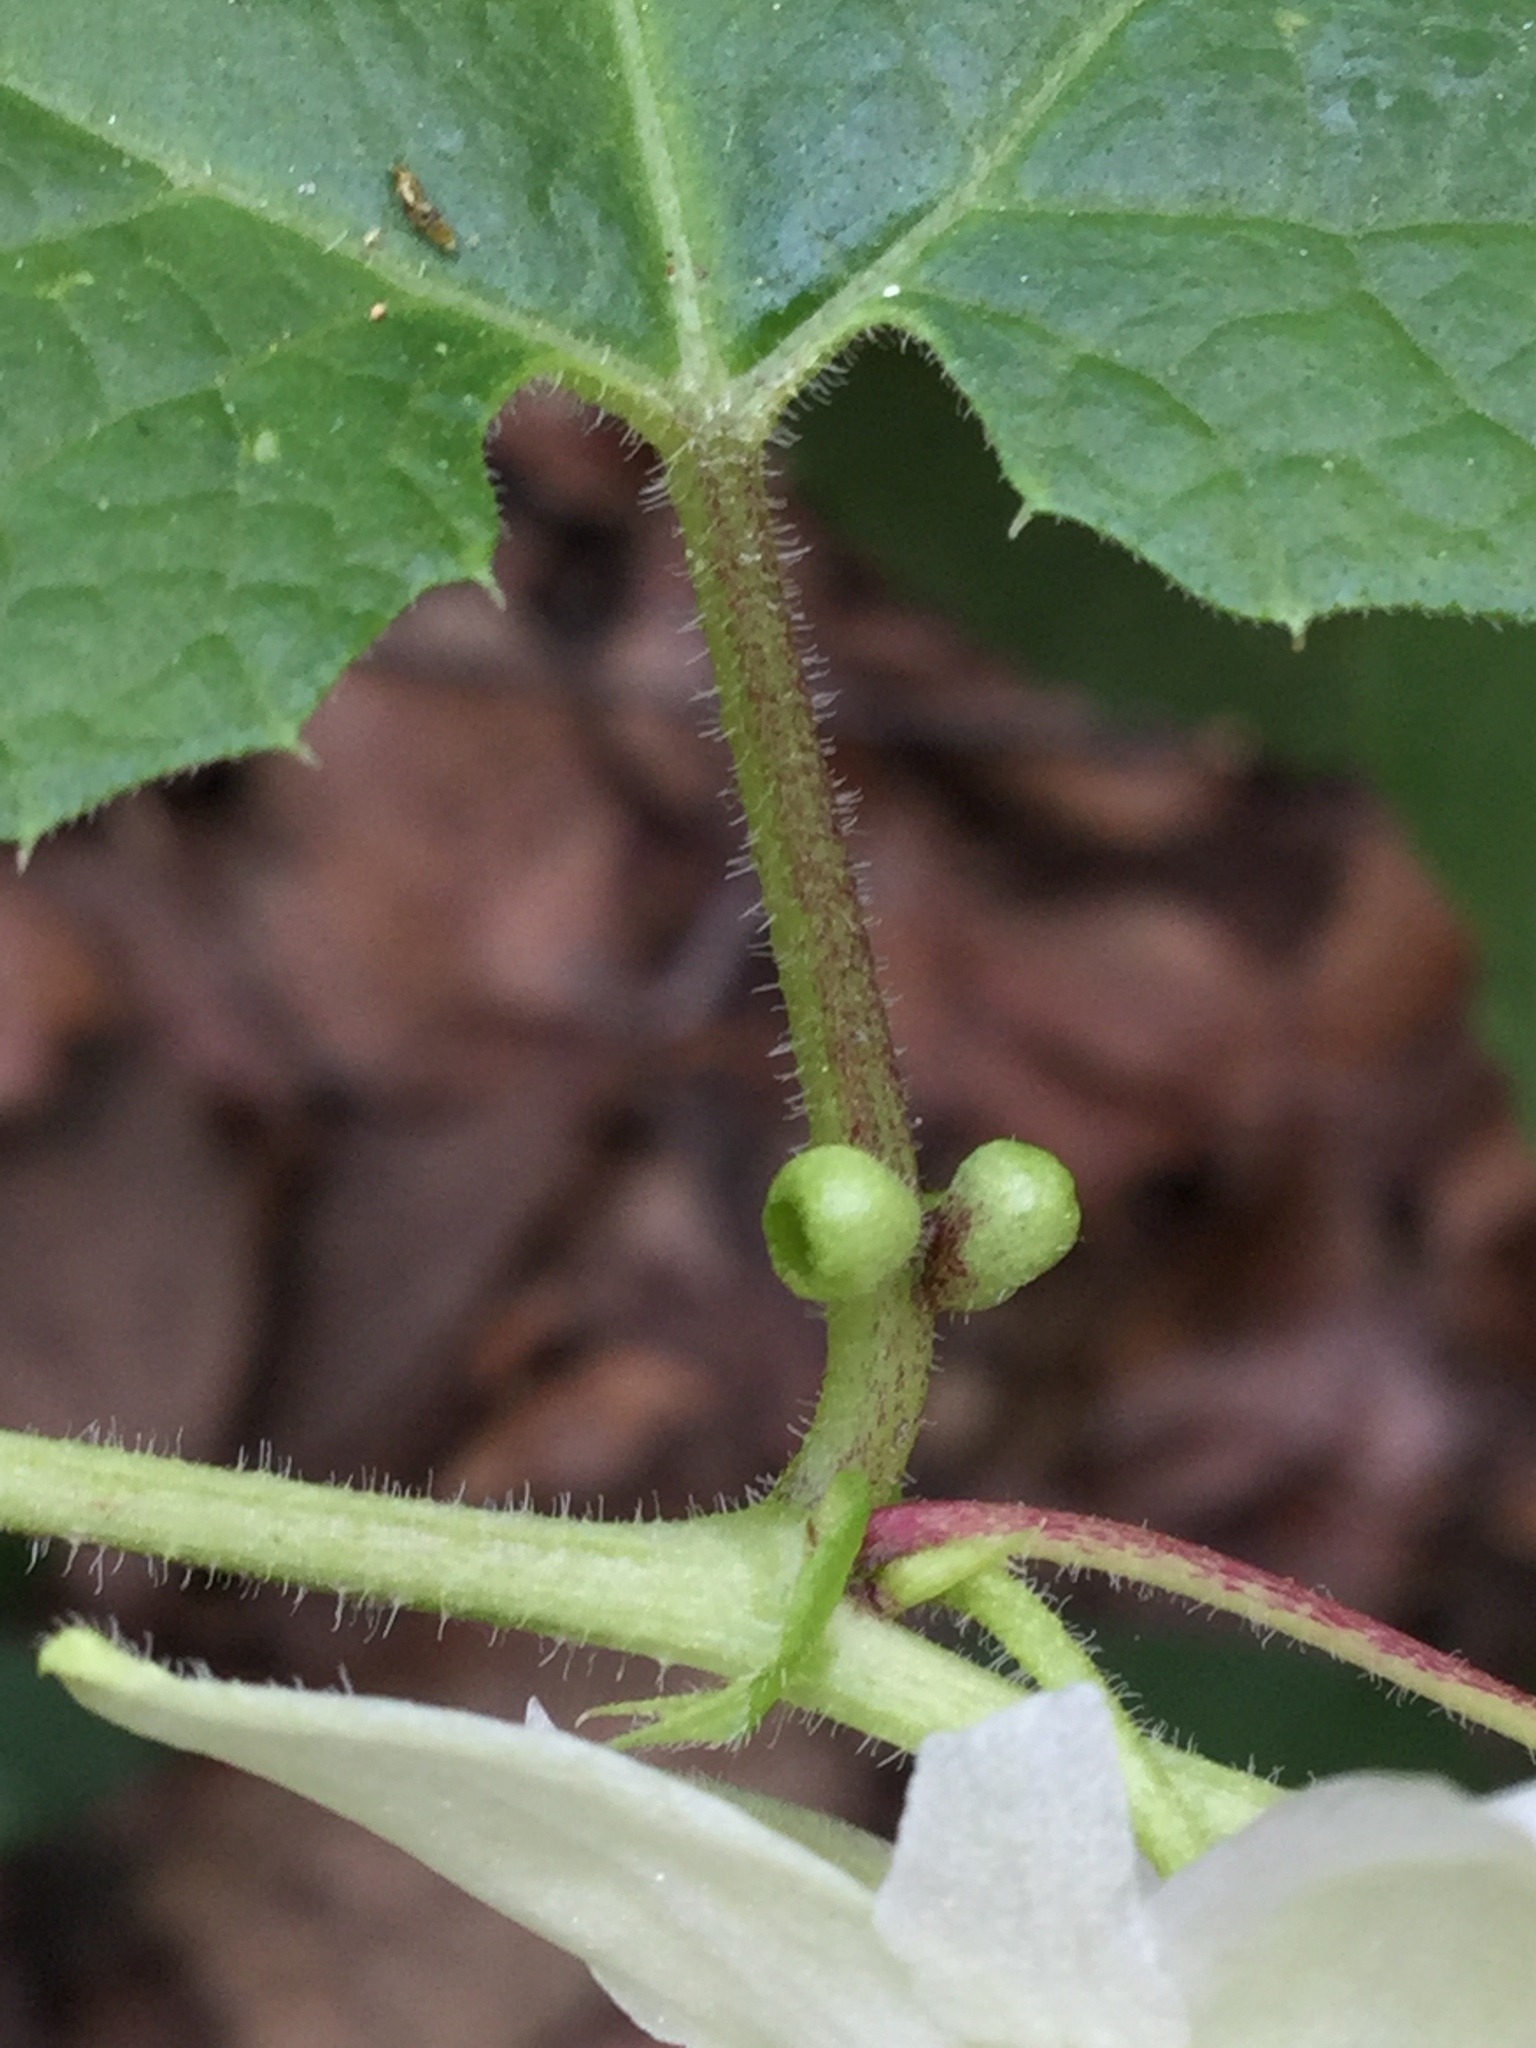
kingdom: Plantae
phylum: Tracheophyta
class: Magnoliopsida
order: Malpighiales
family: Passifloraceae
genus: Passiflora
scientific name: Passiflora exsudans
